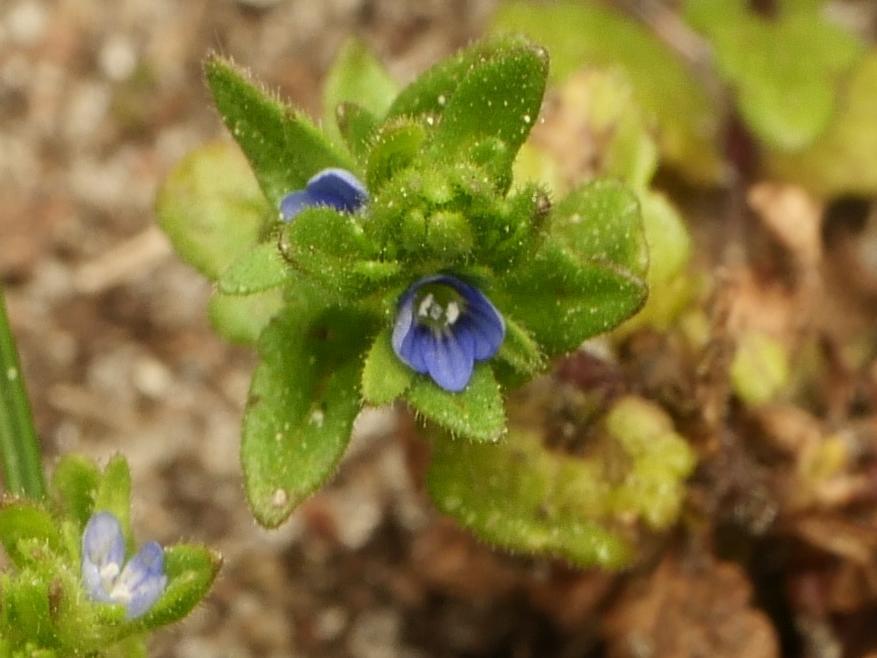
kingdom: Plantae
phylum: Tracheophyta
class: Magnoliopsida
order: Lamiales
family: Plantaginaceae
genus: Veronica
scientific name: Veronica arvensis
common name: Corn speedwell
